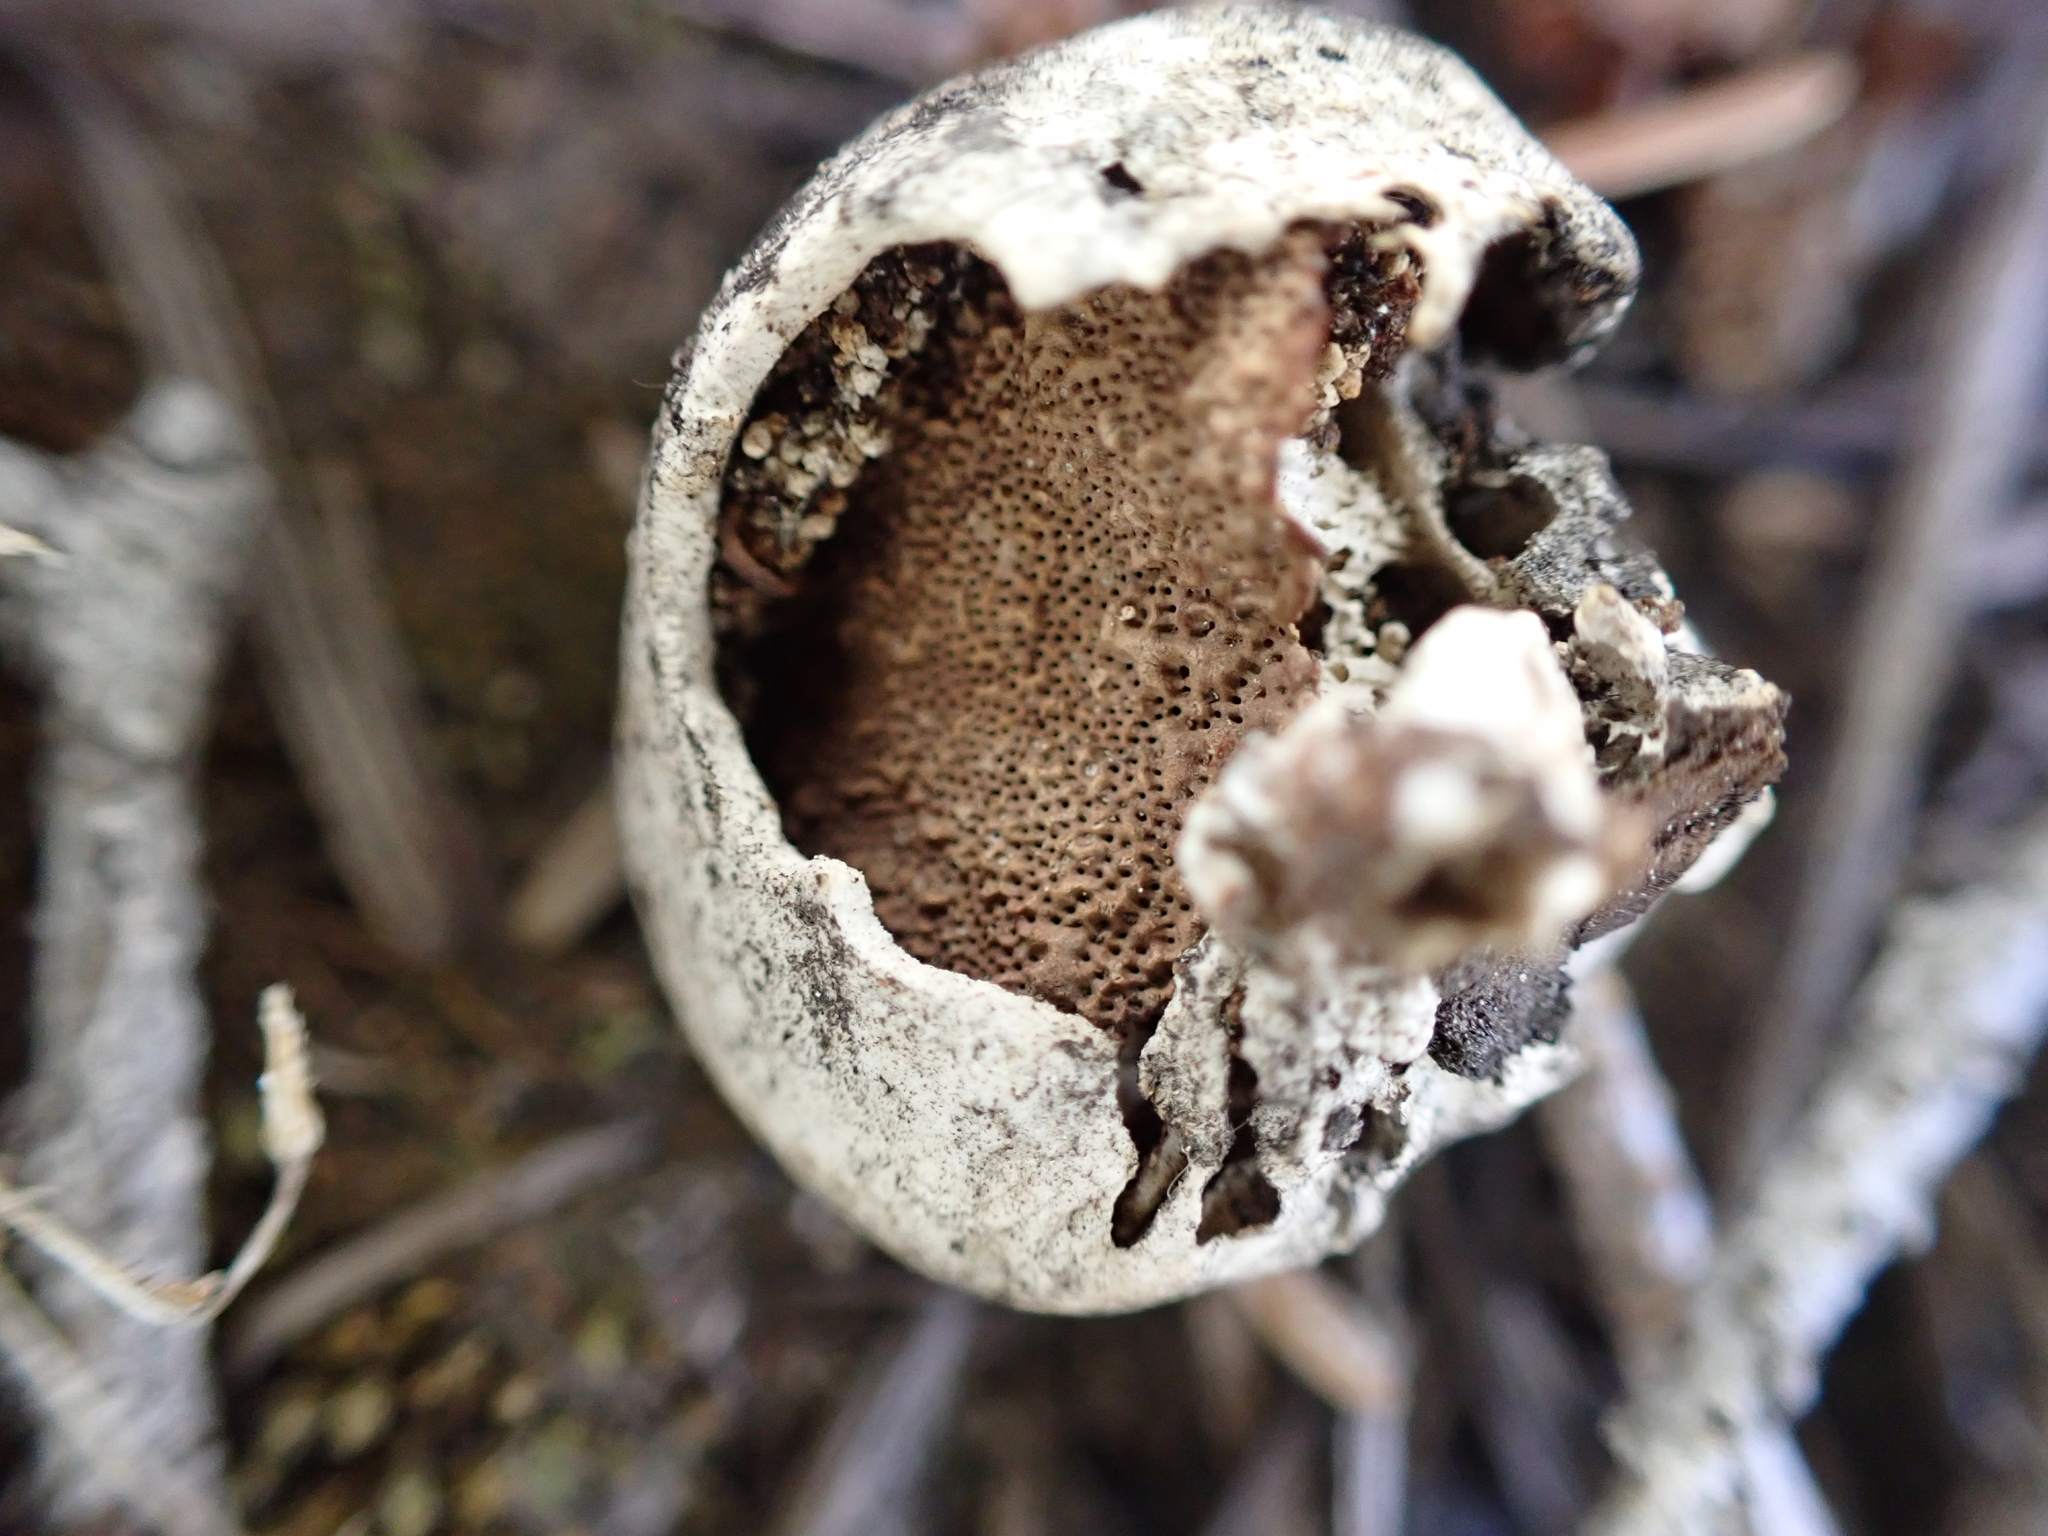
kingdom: Fungi
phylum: Basidiomycota
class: Agaricomycetes
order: Polyporales
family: Polyporaceae
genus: Cryptoporus
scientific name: Cryptoporus volvatus
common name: Veiled polypore
